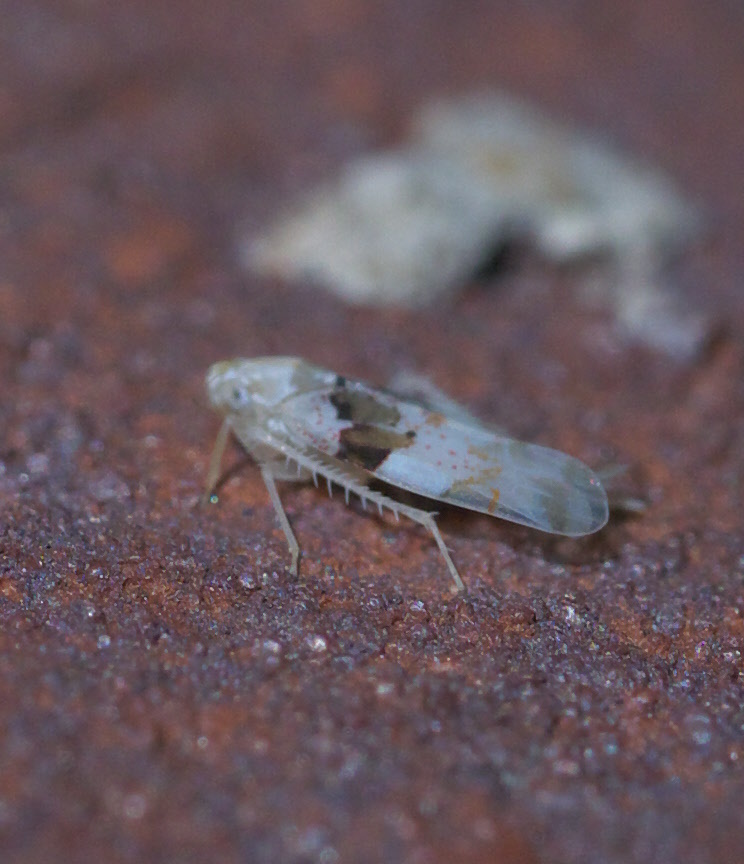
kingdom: Animalia
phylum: Arthropoda
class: Insecta
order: Hemiptera
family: Cicadellidae
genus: Hymetta
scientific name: Hymetta anthisma
